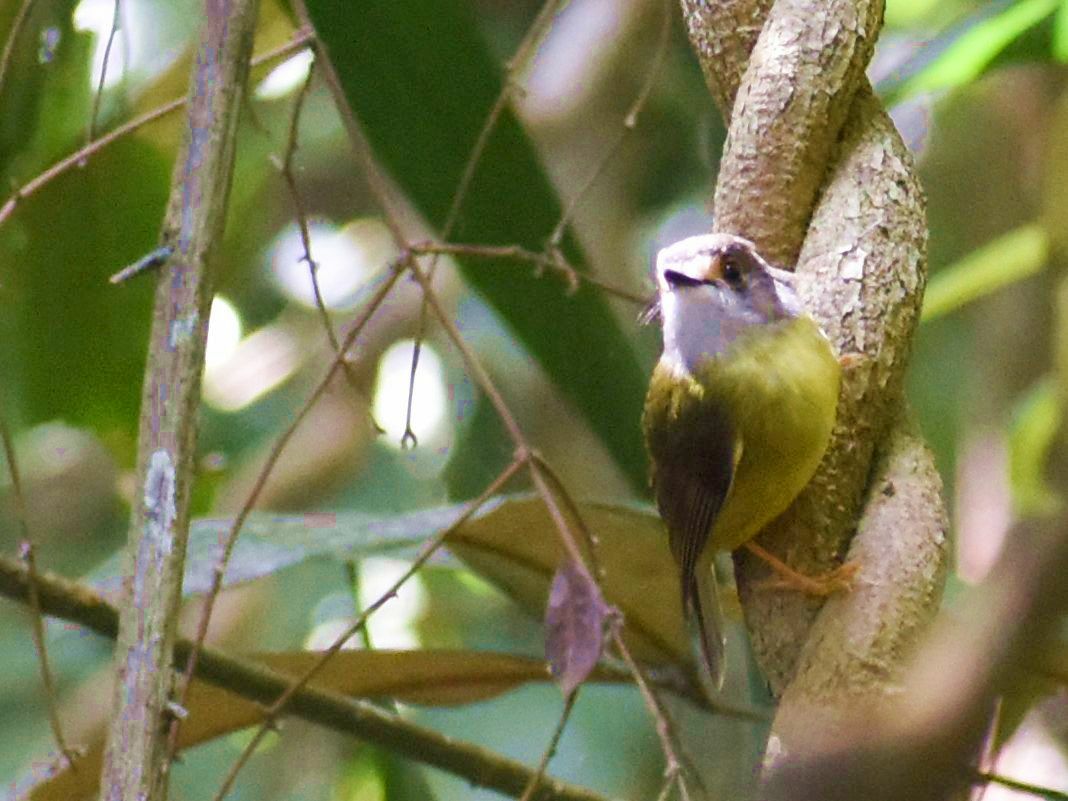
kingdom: Animalia
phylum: Chordata
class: Aves
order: Passeriformes
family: Petroicidae
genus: Eopsaltria
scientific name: Eopsaltria
